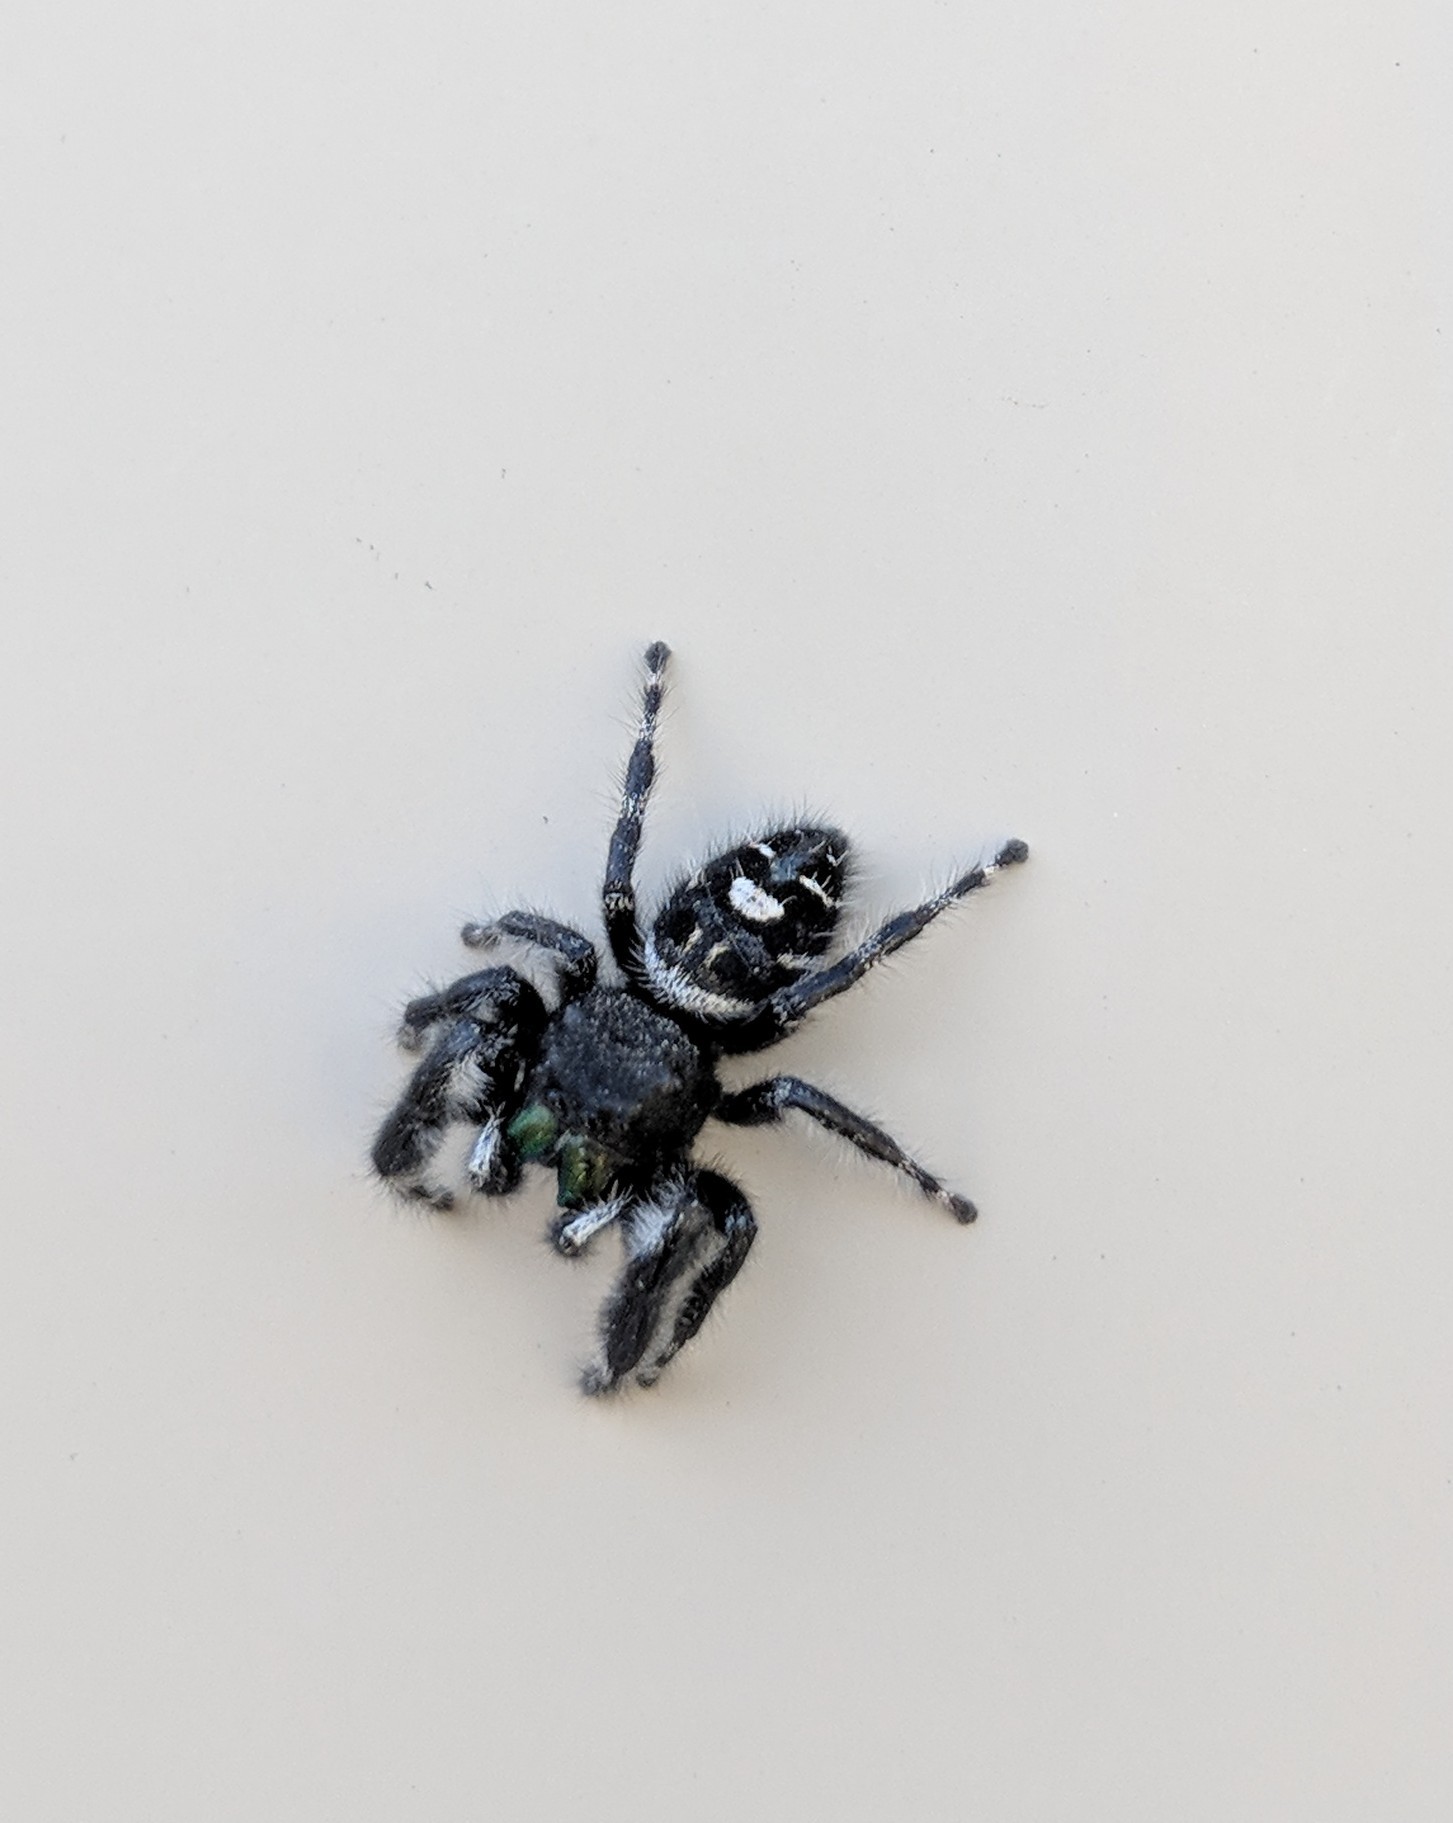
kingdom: Animalia
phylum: Arthropoda
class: Arachnida
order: Araneae
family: Salticidae
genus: Phidippus
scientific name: Phidippus audax
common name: Bold jumper
